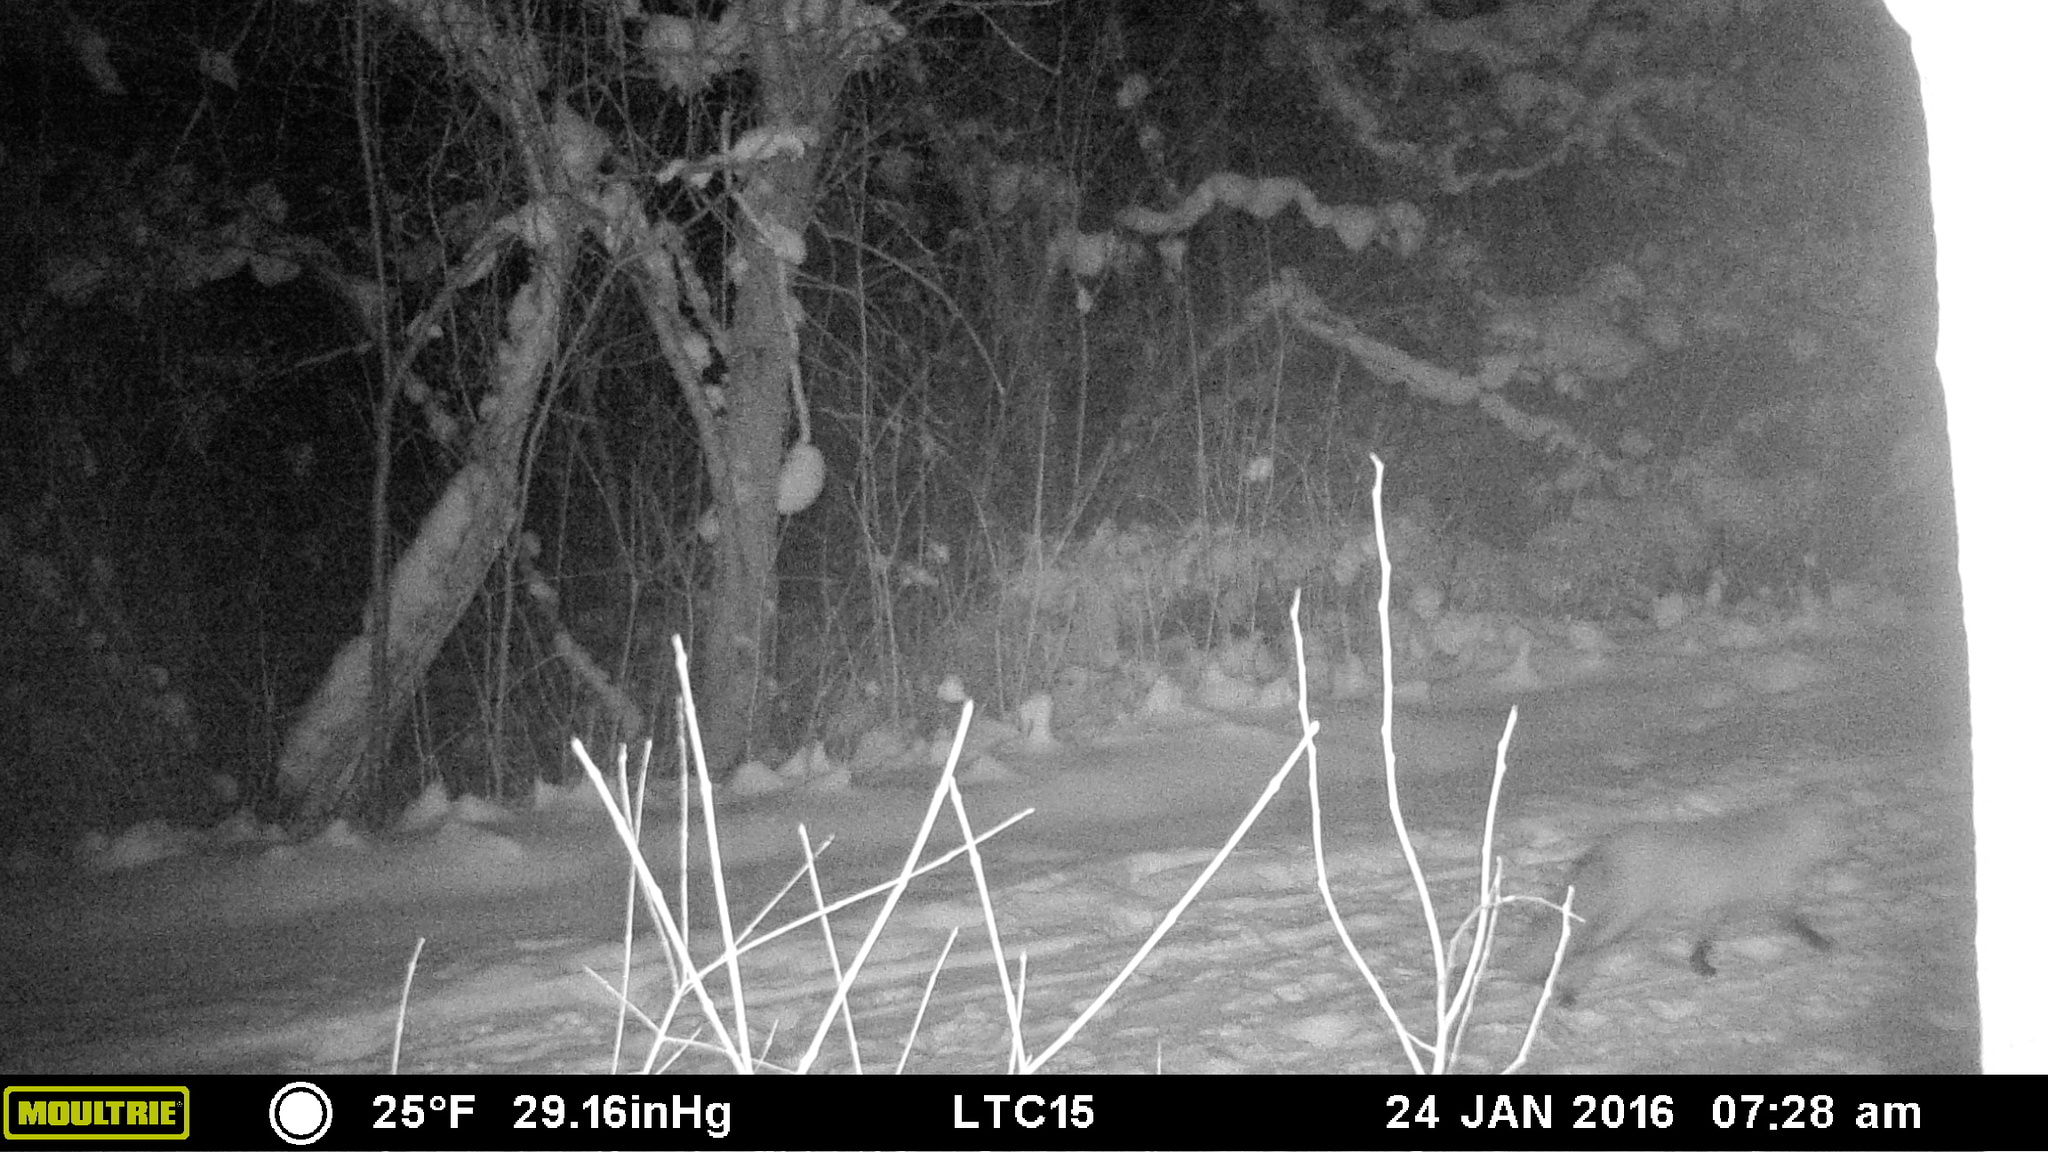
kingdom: Animalia
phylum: Chordata
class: Mammalia
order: Carnivora
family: Canidae
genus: Vulpes
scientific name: Vulpes vulpes
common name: Red fox
